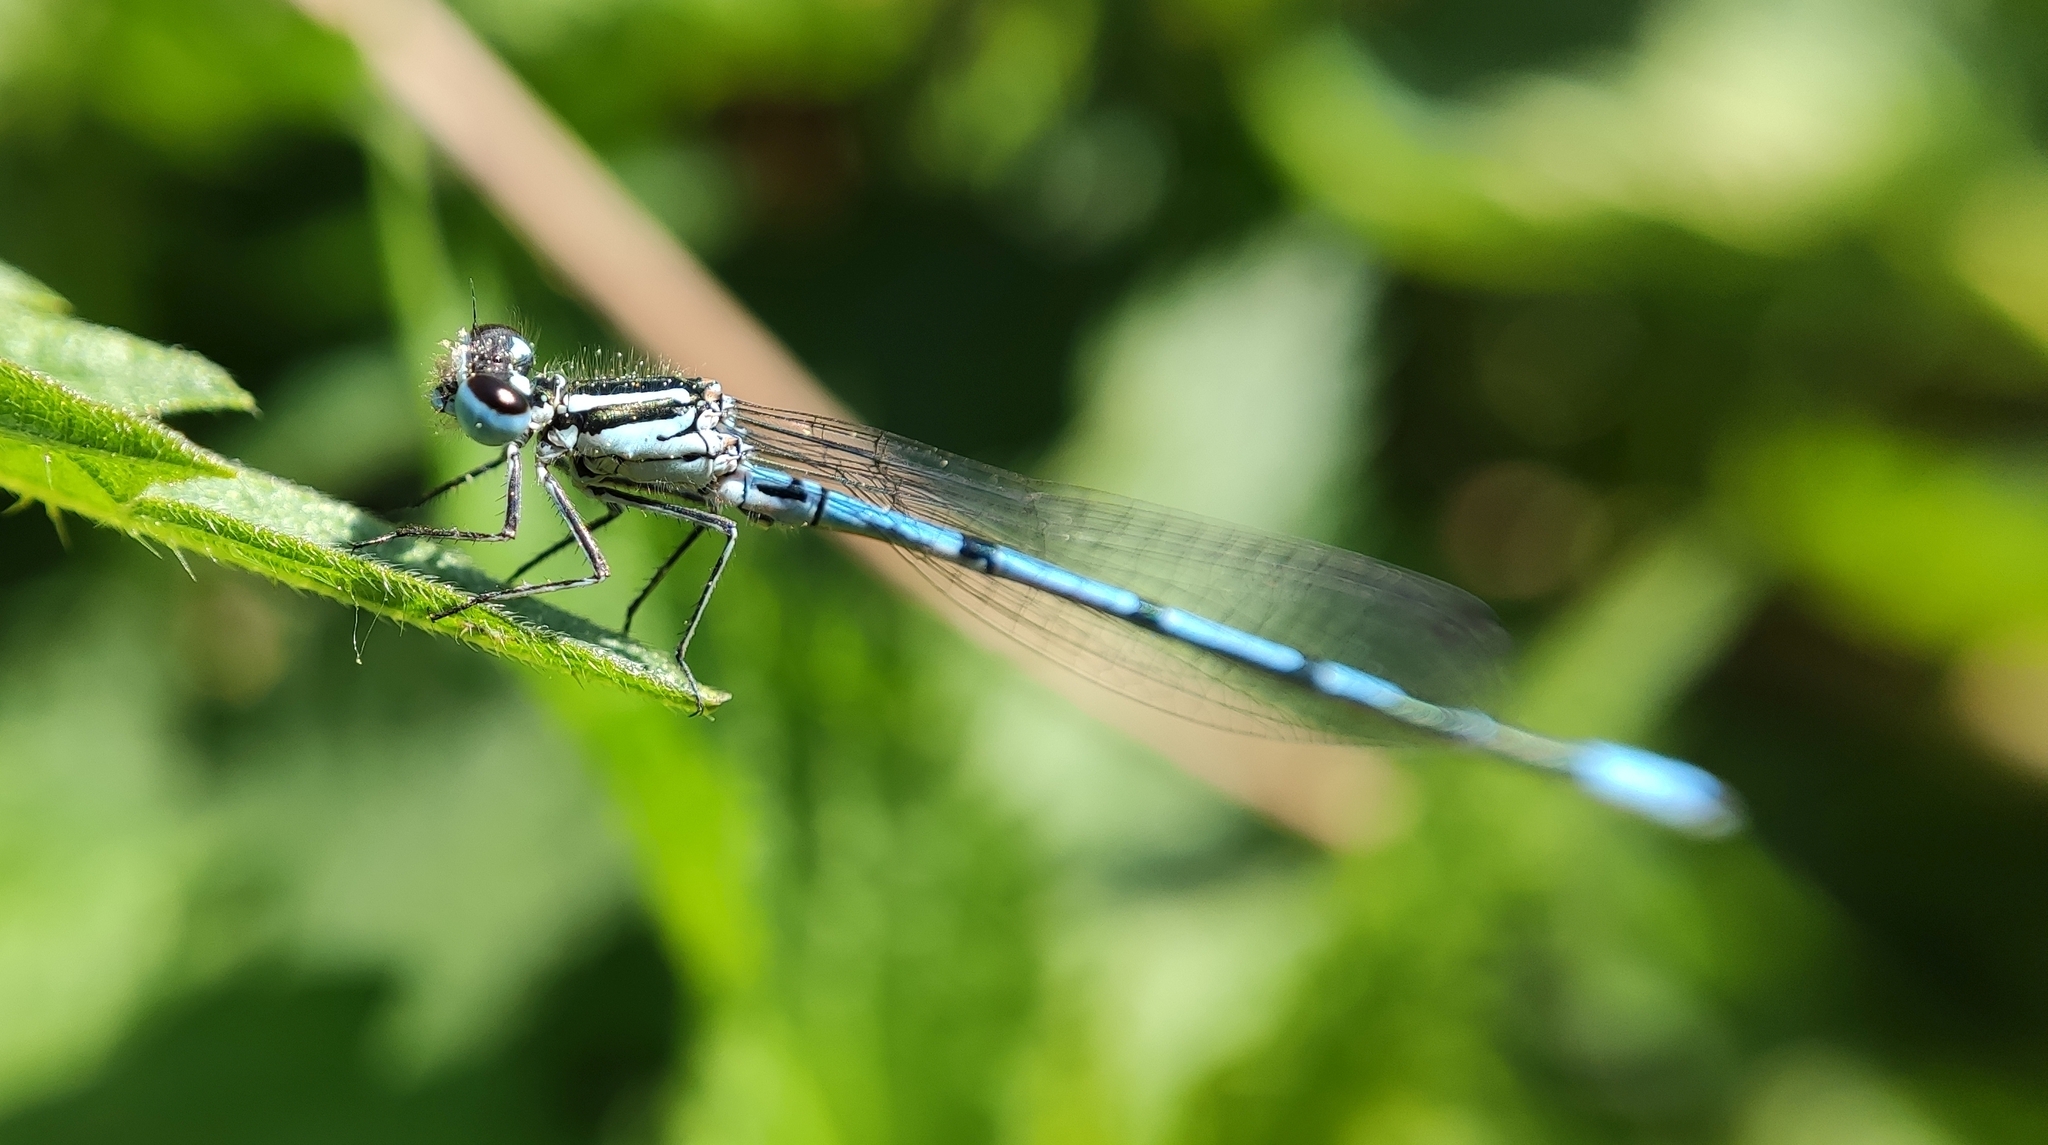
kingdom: Animalia
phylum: Arthropoda
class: Insecta
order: Odonata
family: Coenagrionidae
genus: Coenagrion
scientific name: Coenagrion puella
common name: Azure damselfly
